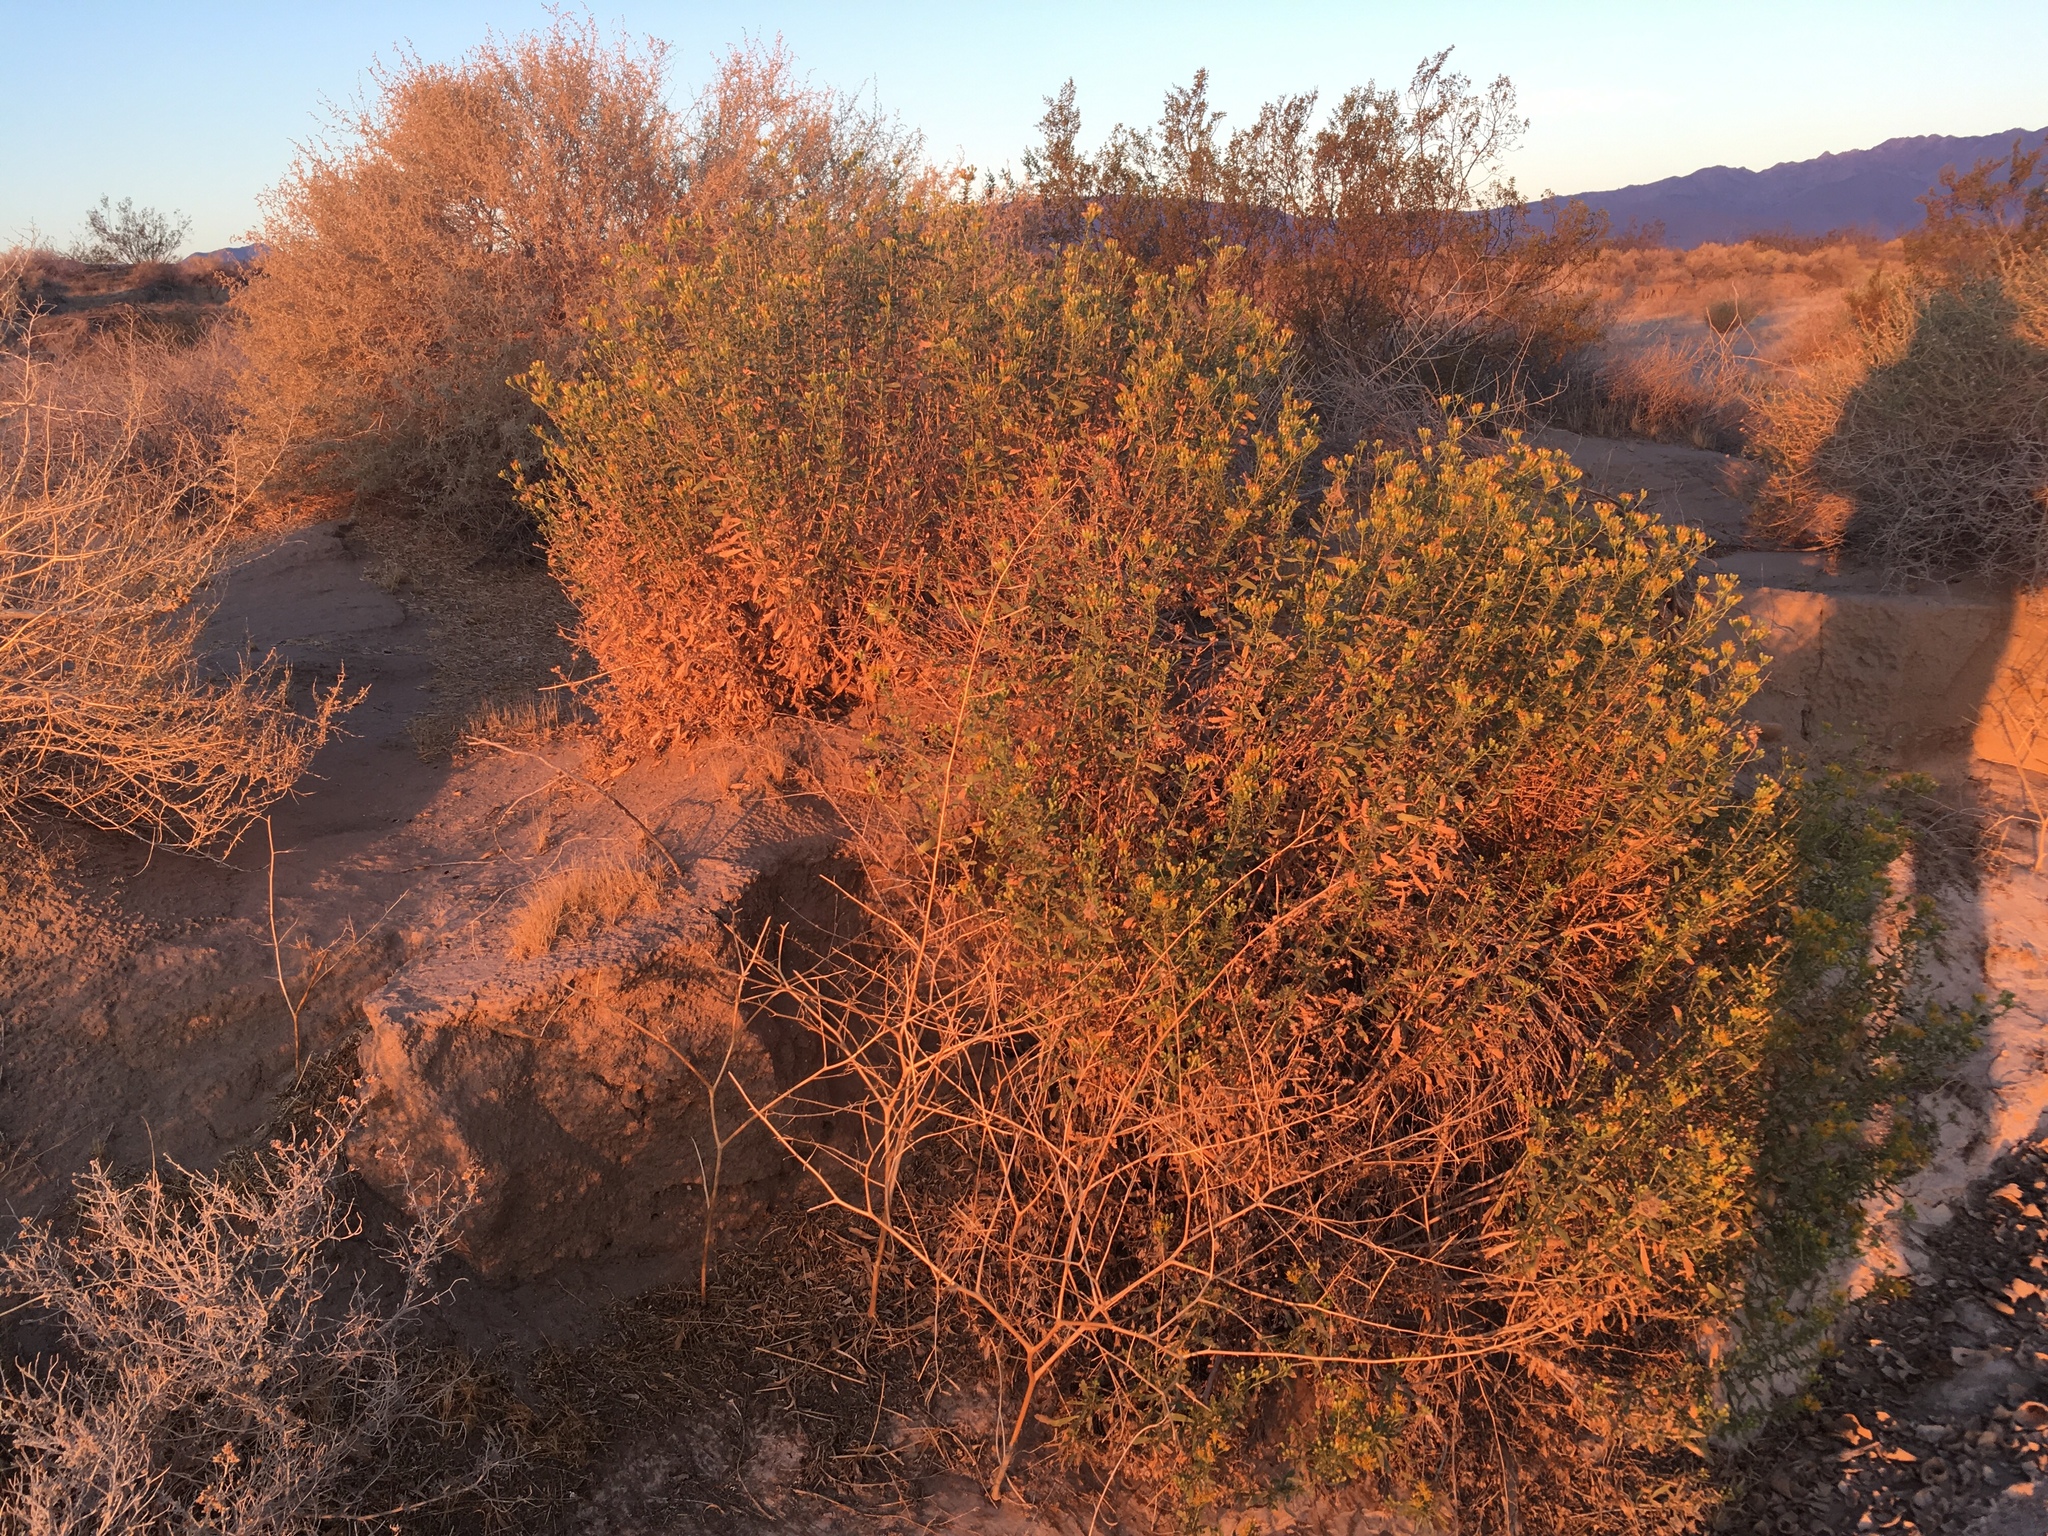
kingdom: Plantae
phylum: Tracheophyta
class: Magnoliopsida
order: Asterales
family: Asteraceae
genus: Isocoma
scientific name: Isocoma acradenia
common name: Alkali jimmyweed
